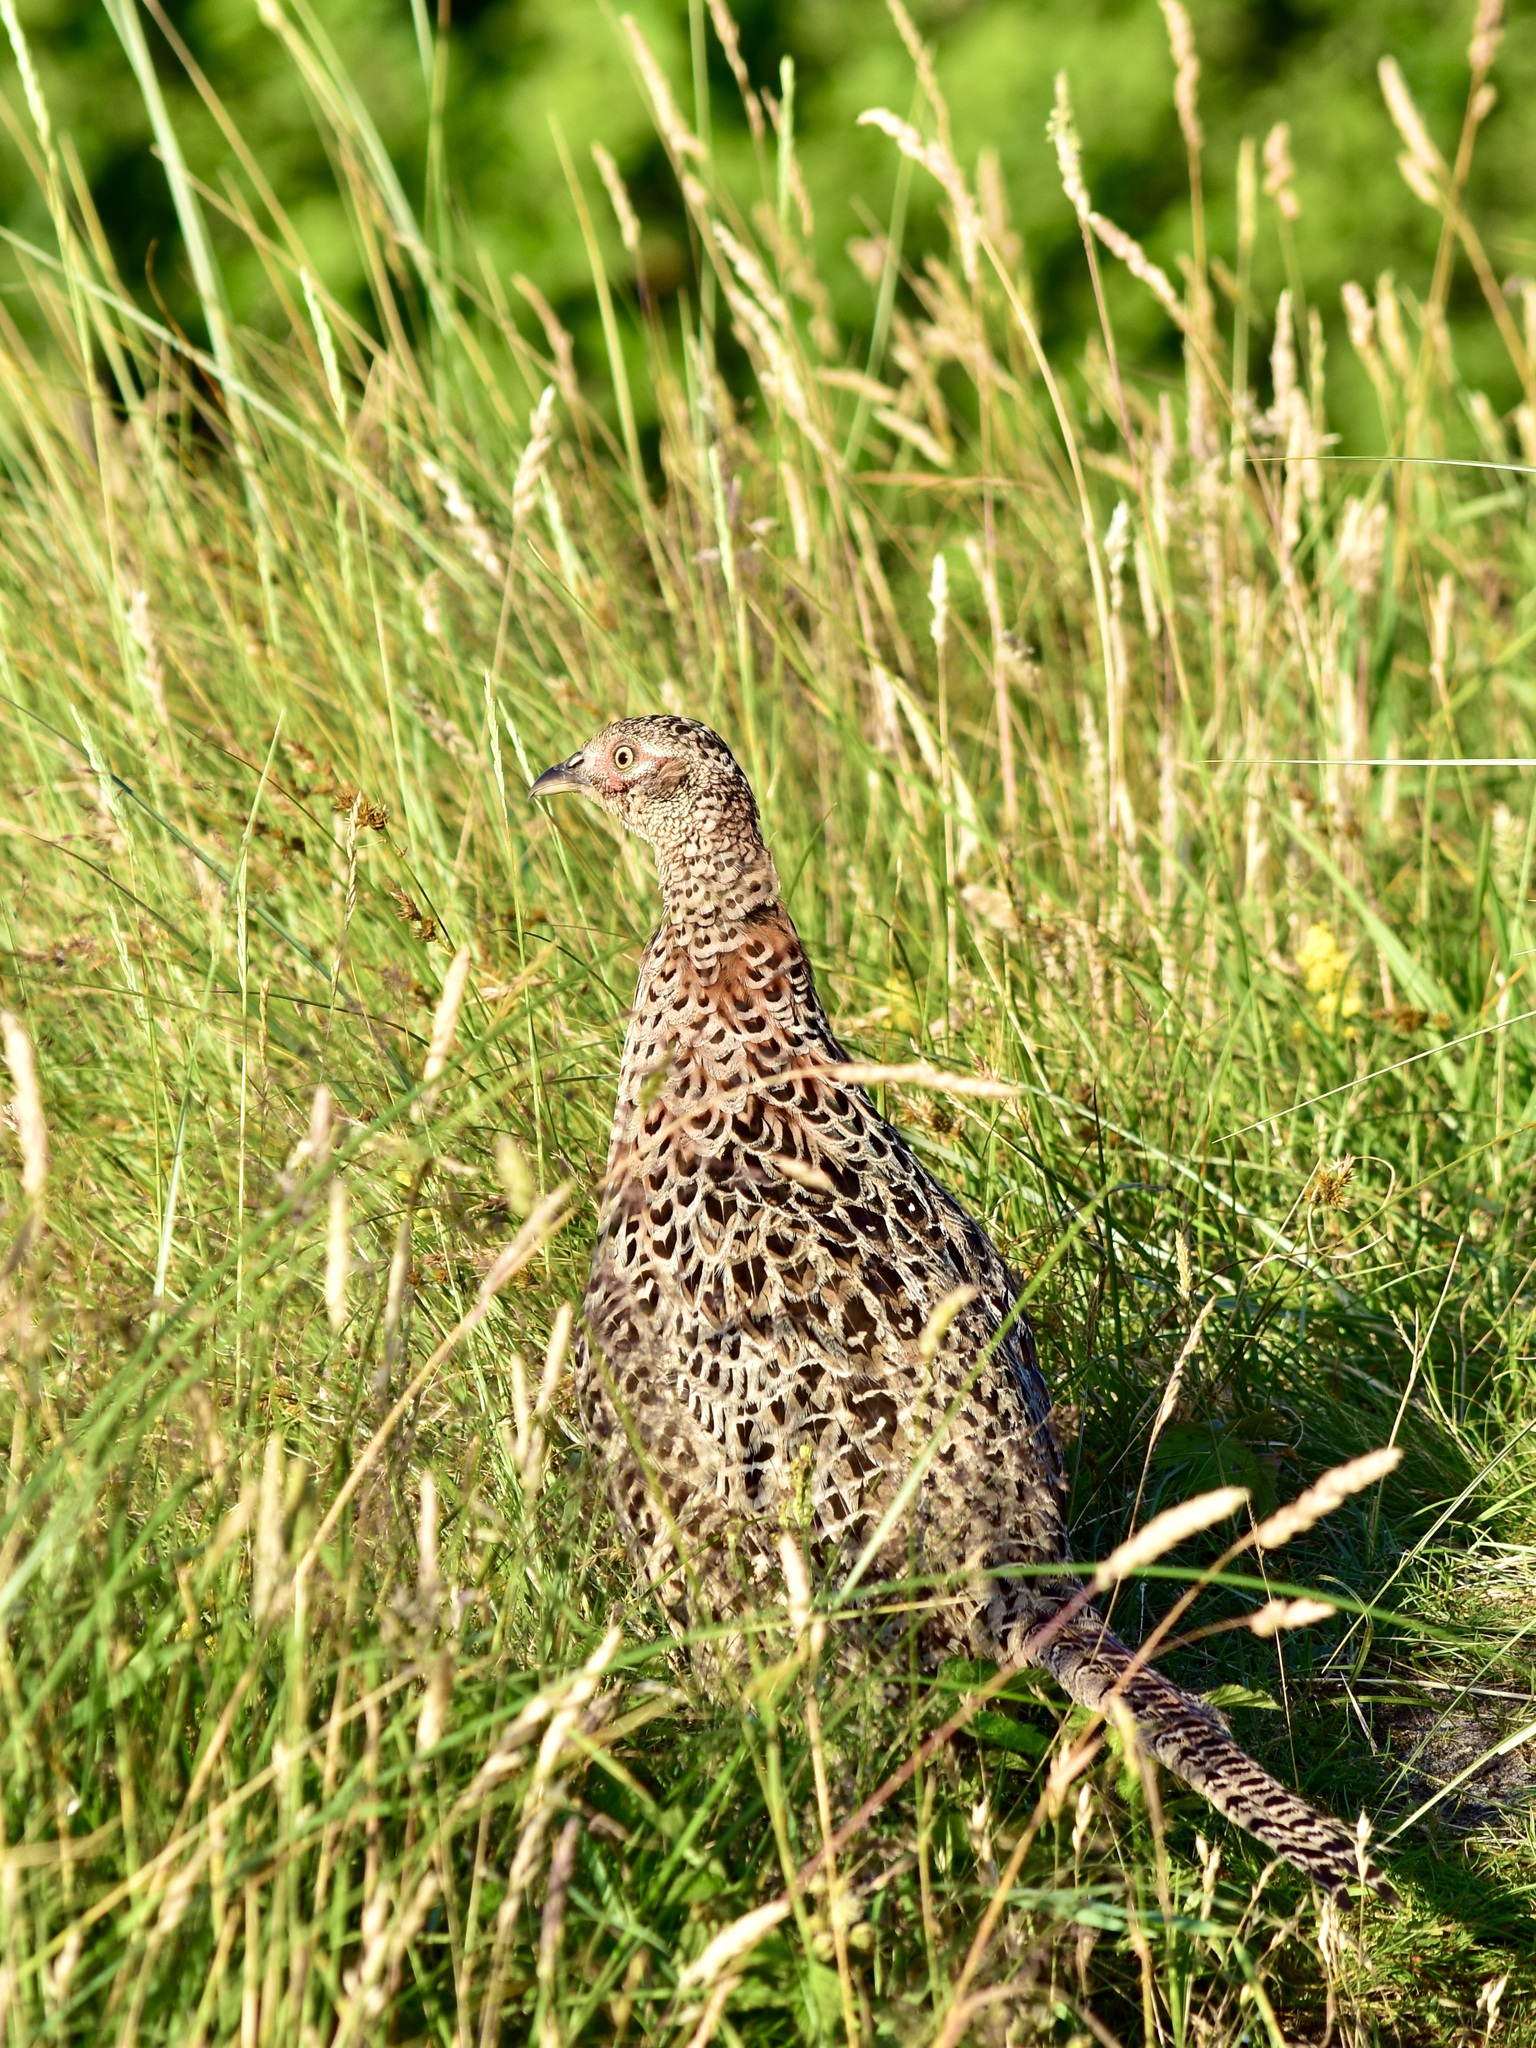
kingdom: Animalia
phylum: Chordata
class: Aves
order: Galliformes
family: Phasianidae
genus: Phasianus
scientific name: Phasianus colchicus
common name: Common pheasant
